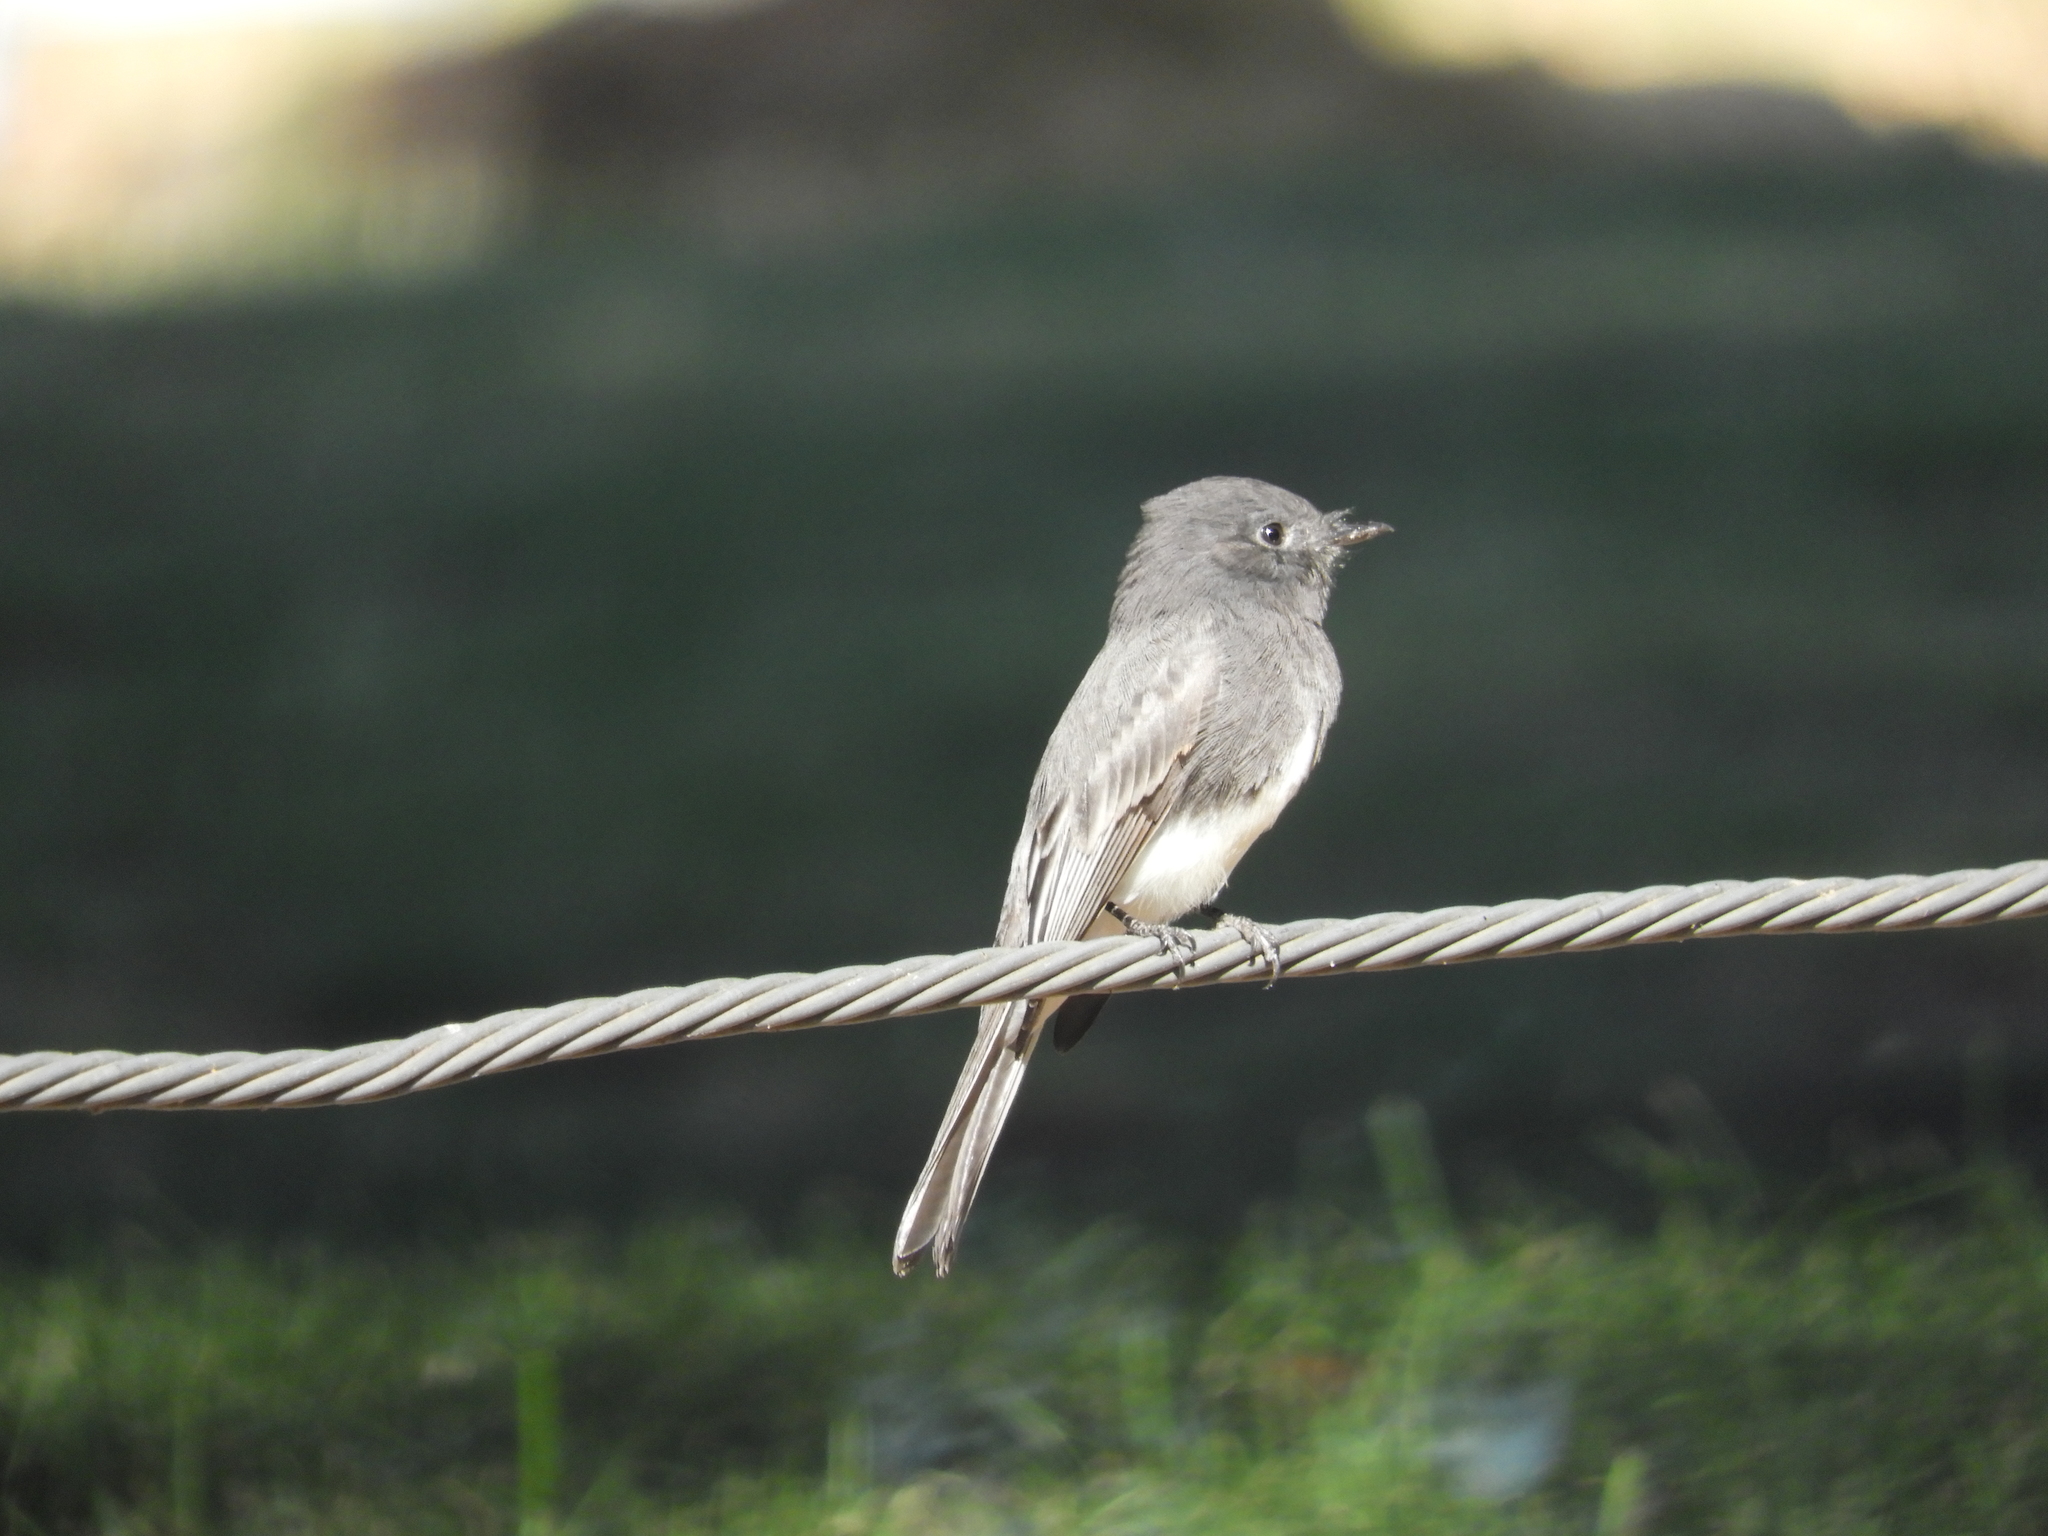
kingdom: Animalia
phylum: Chordata
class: Aves
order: Passeriformes
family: Tyrannidae
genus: Sayornis
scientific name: Sayornis nigricans
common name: Black phoebe
